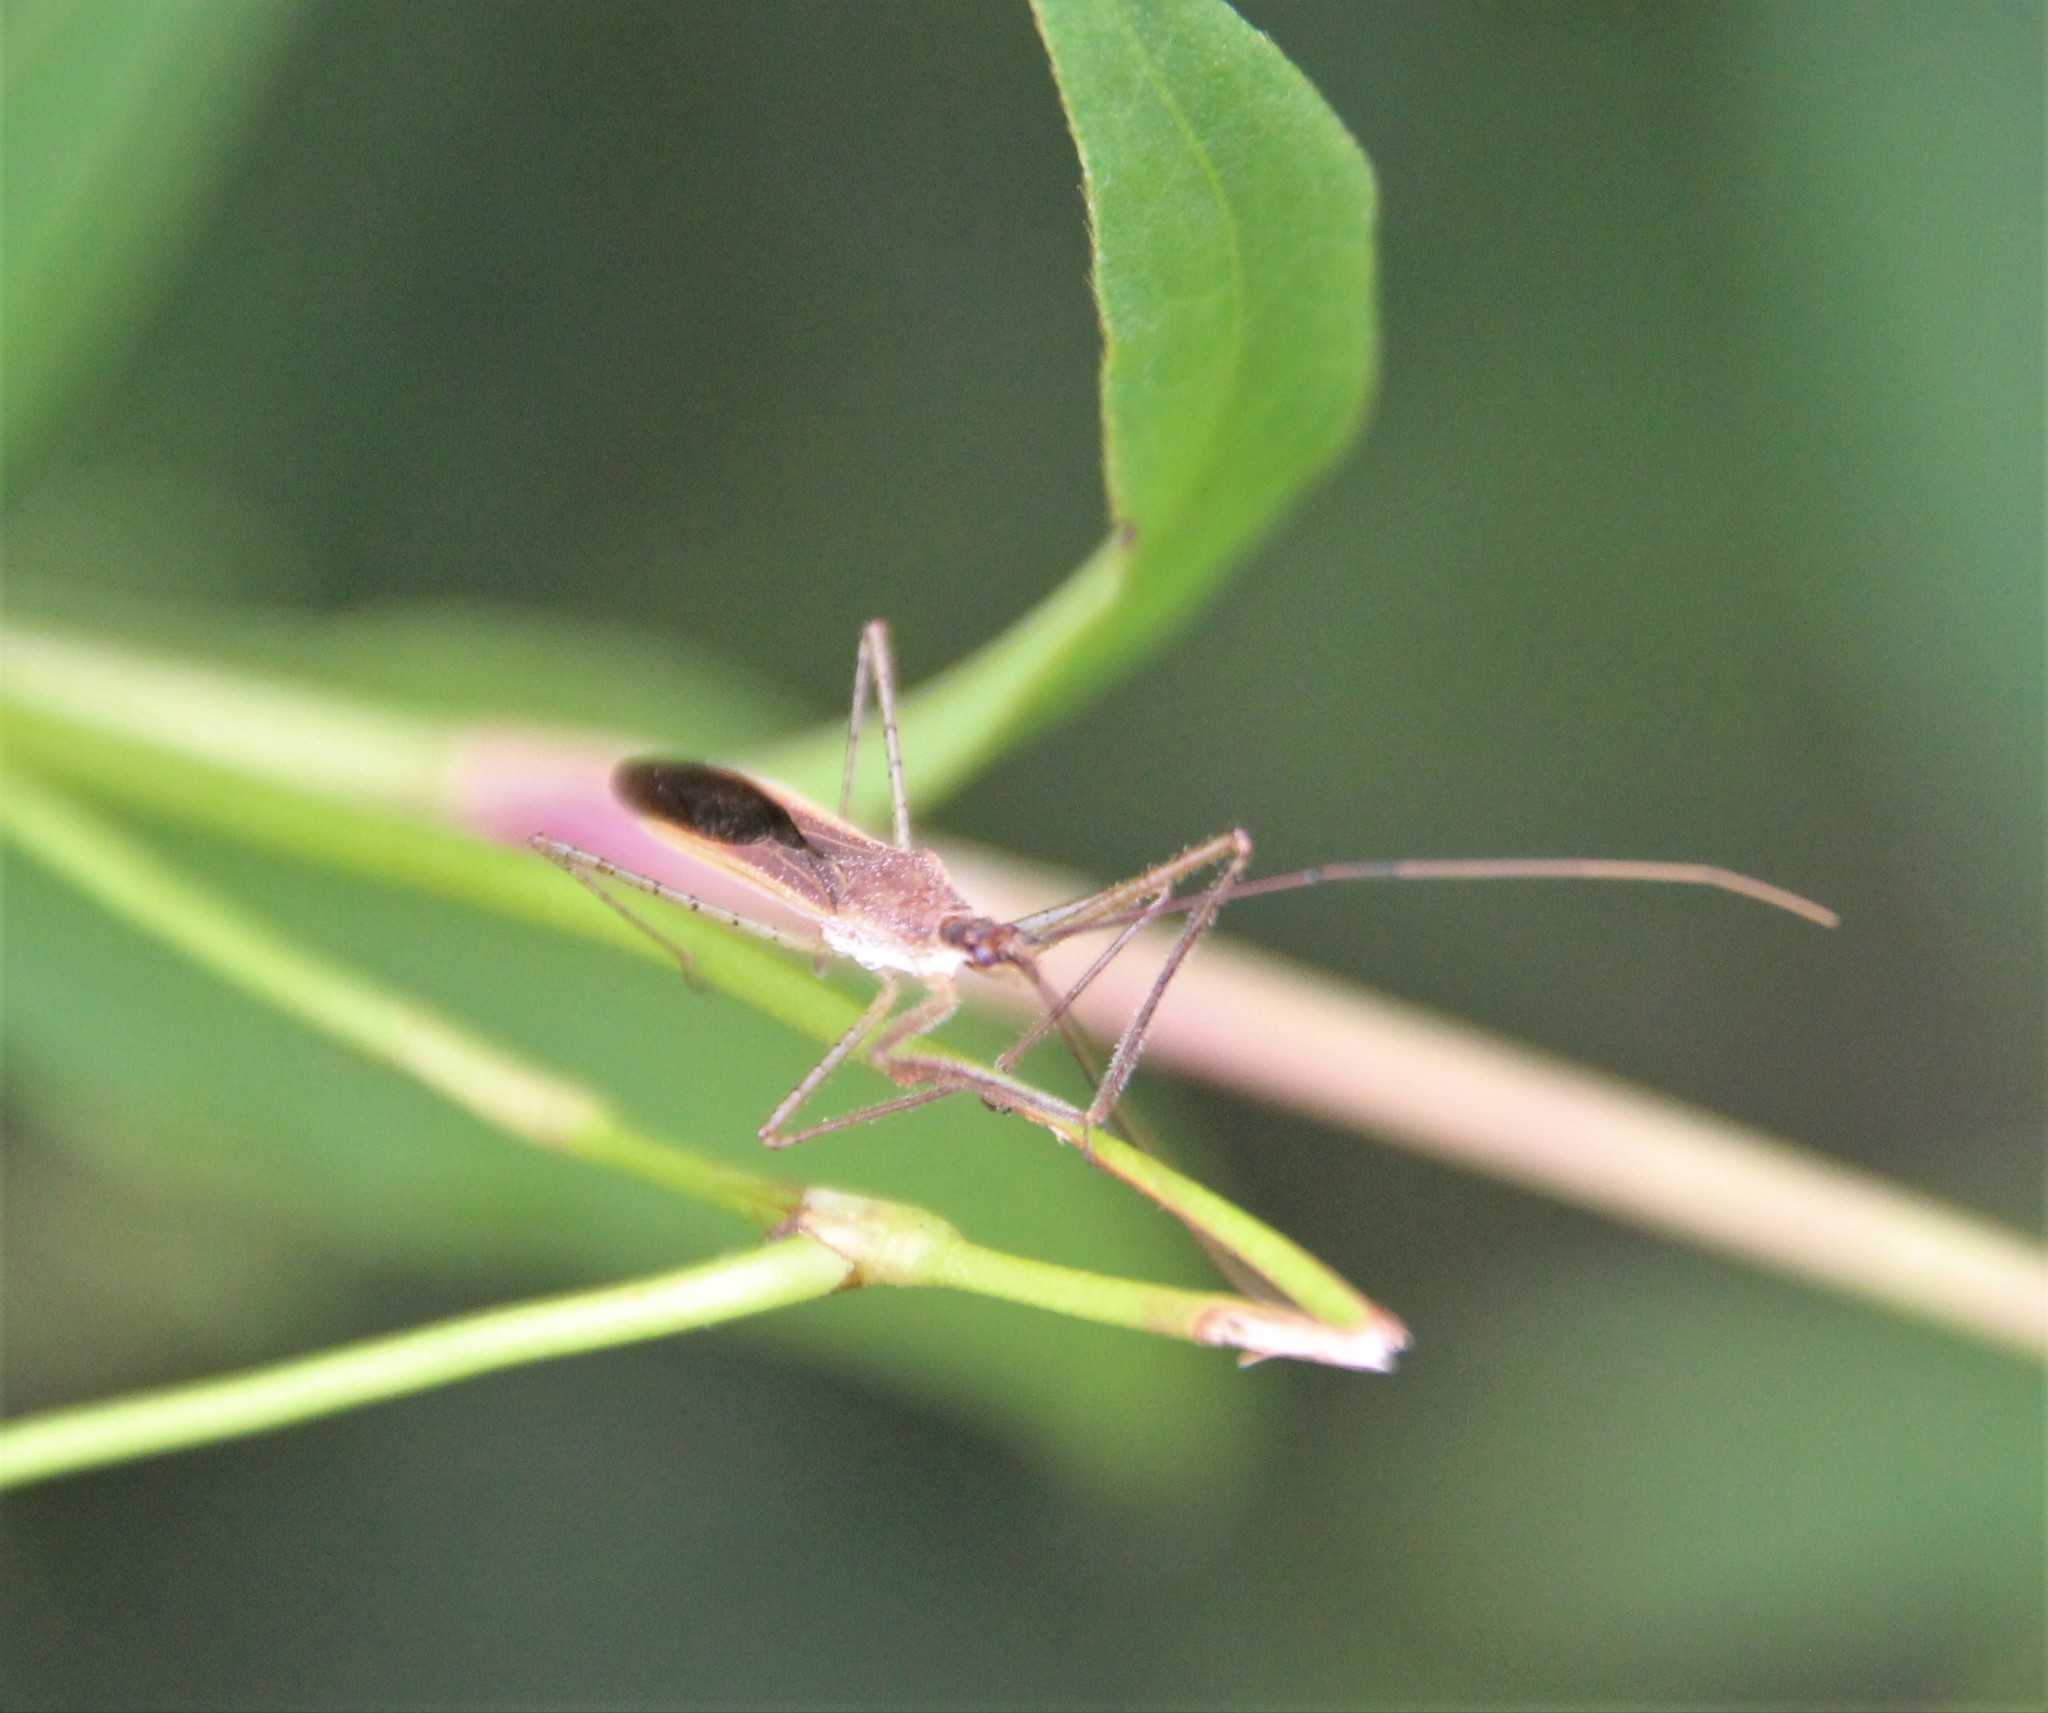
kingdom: Animalia
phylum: Arthropoda
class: Insecta
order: Hemiptera
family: Reduviidae
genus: Zelus
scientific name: Zelus cervicalis
